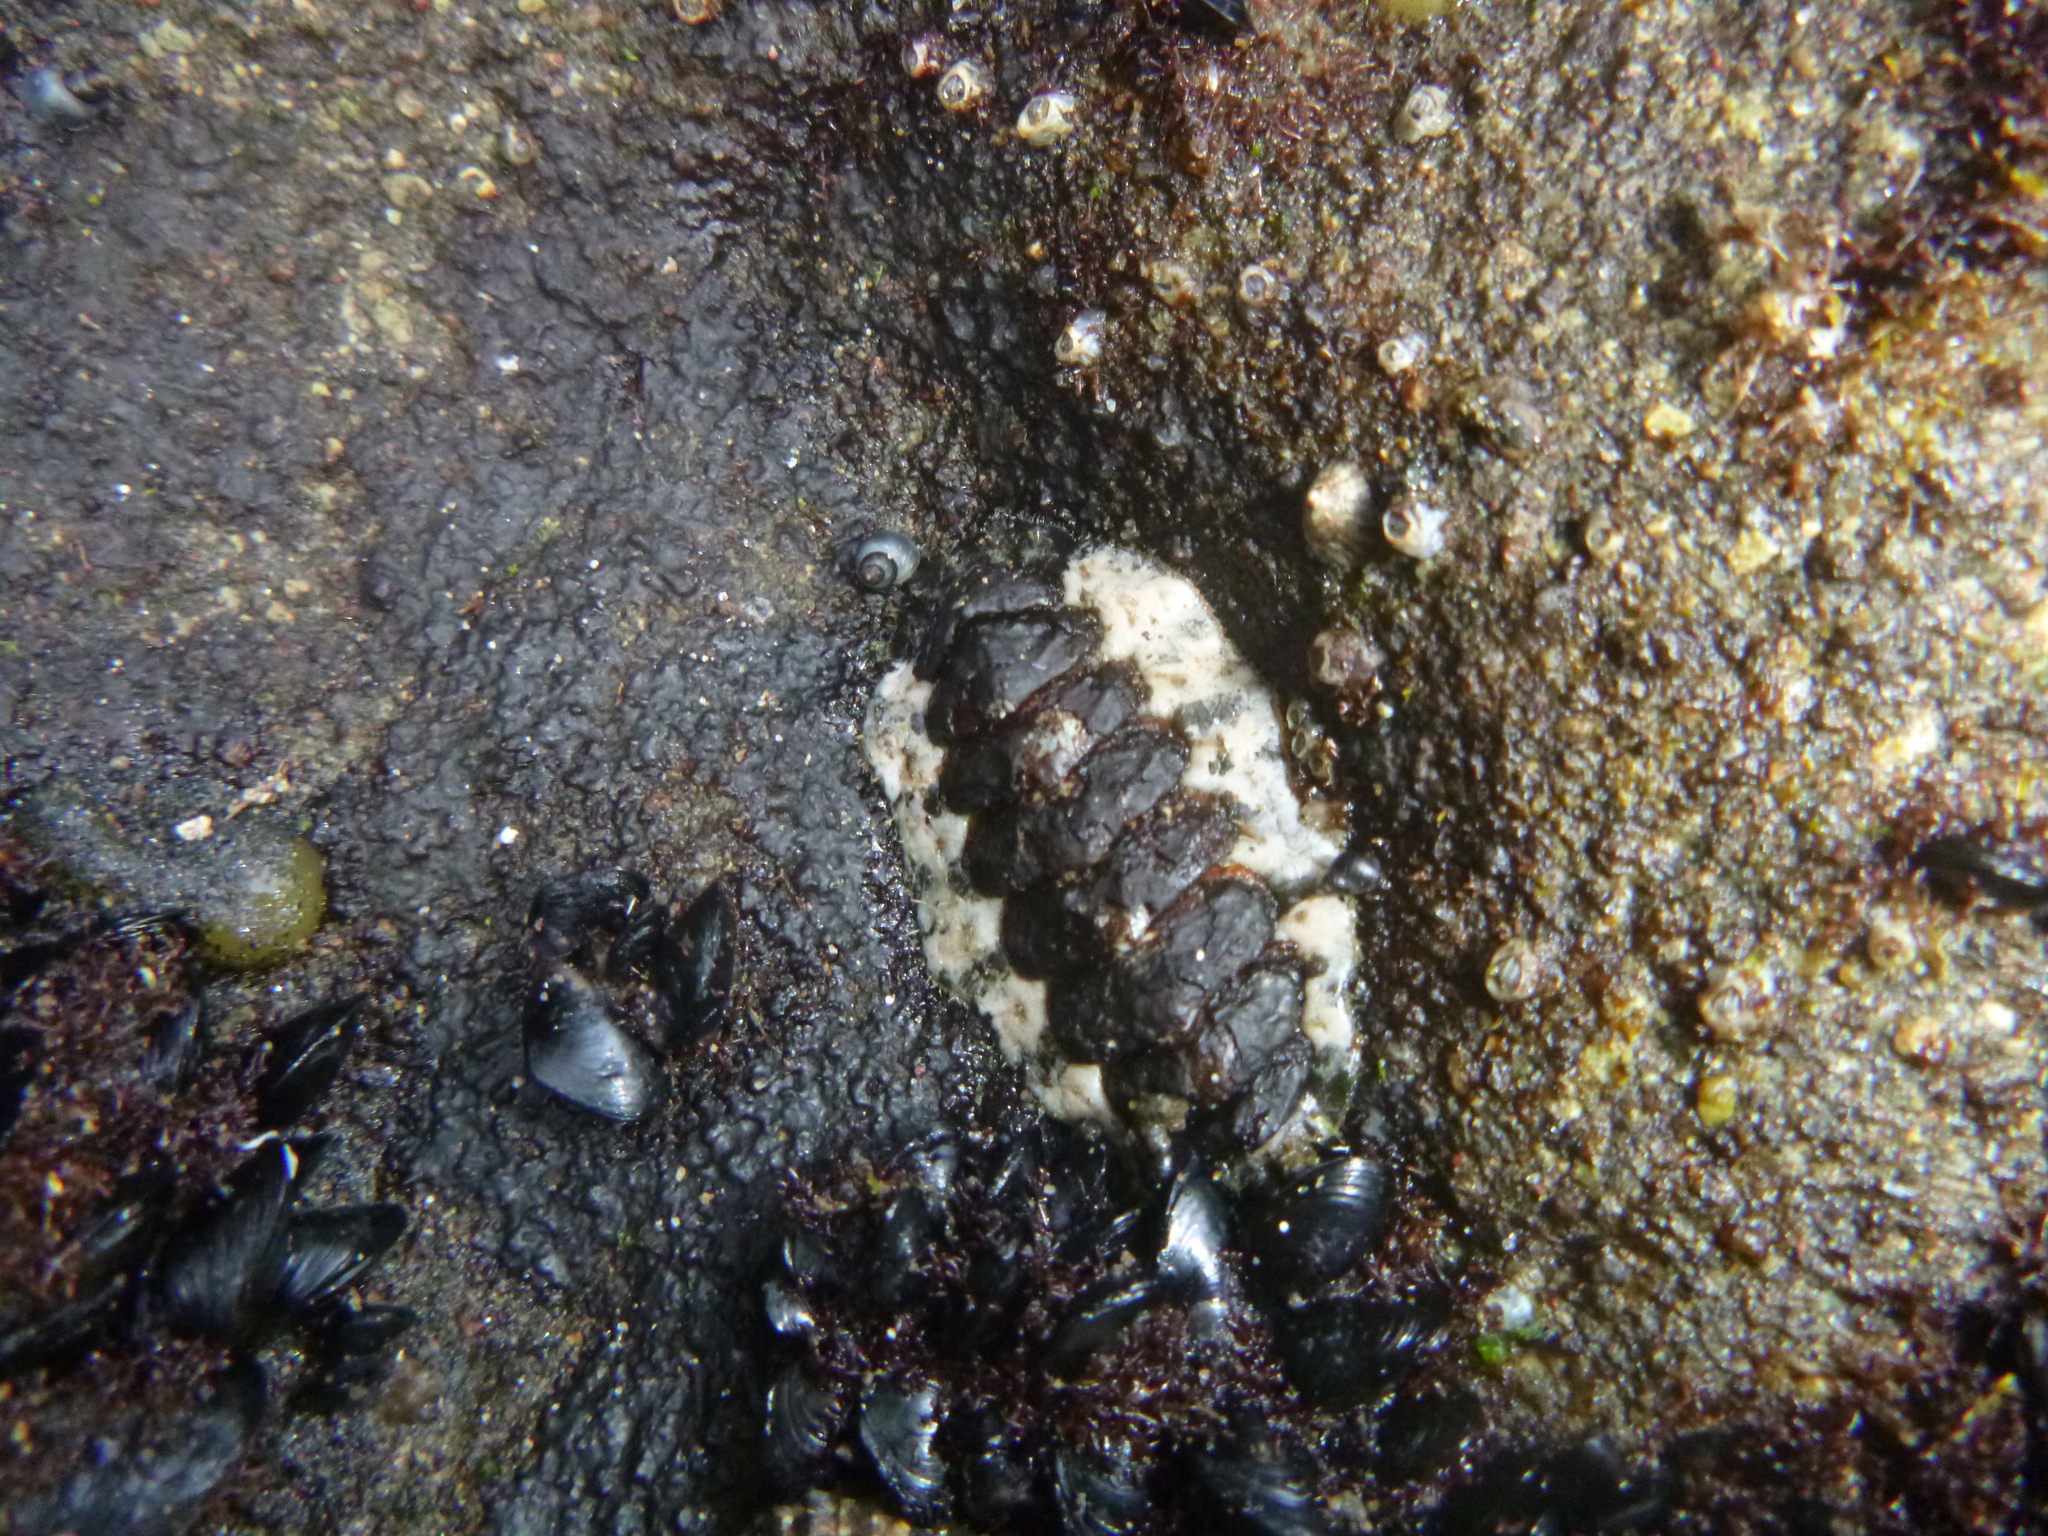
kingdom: Animalia
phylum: Mollusca
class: Polyplacophora
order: Chitonida
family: Mopaliidae
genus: Plaxiphora
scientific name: Plaxiphora caelata
